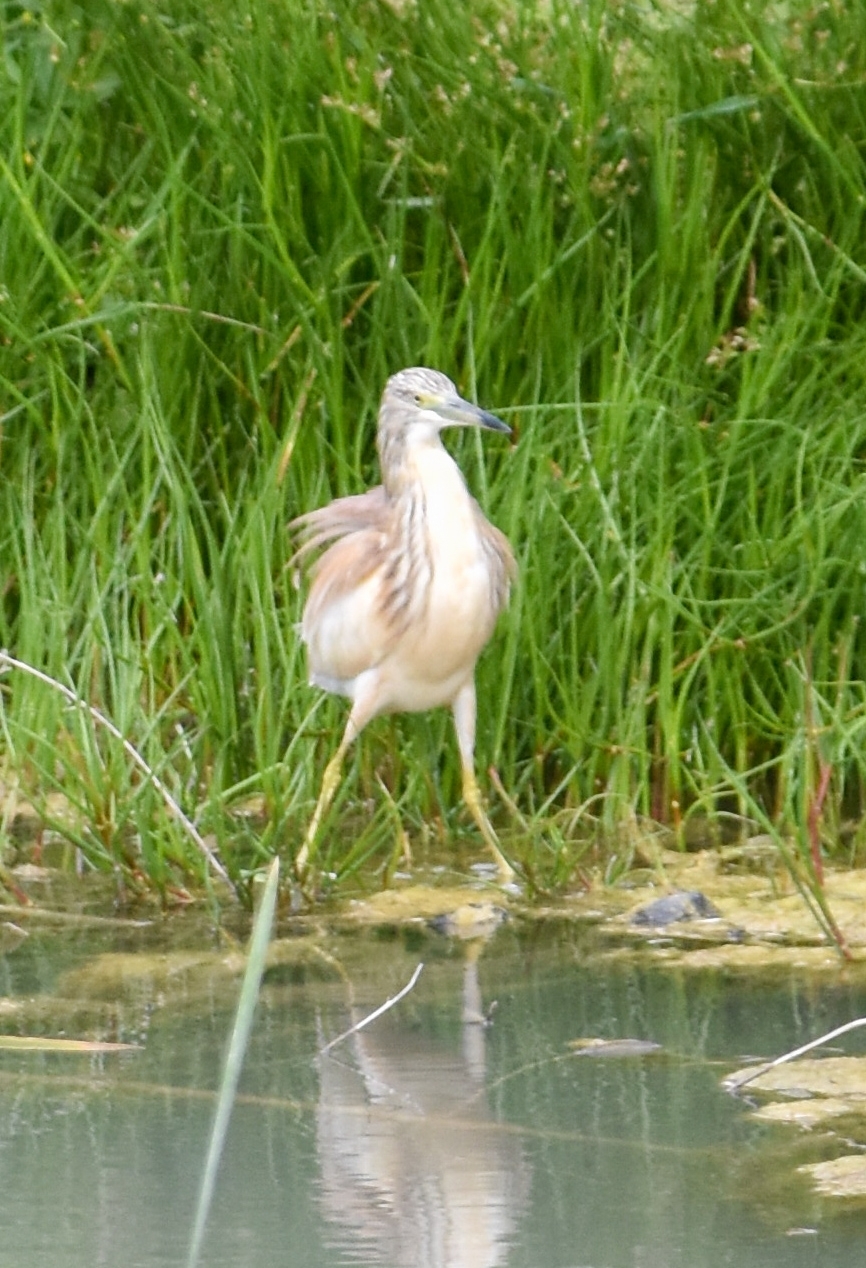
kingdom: Animalia
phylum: Chordata
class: Aves
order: Pelecaniformes
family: Ardeidae
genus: Ardeola
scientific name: Ardeola ralloides
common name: Squacco heron
